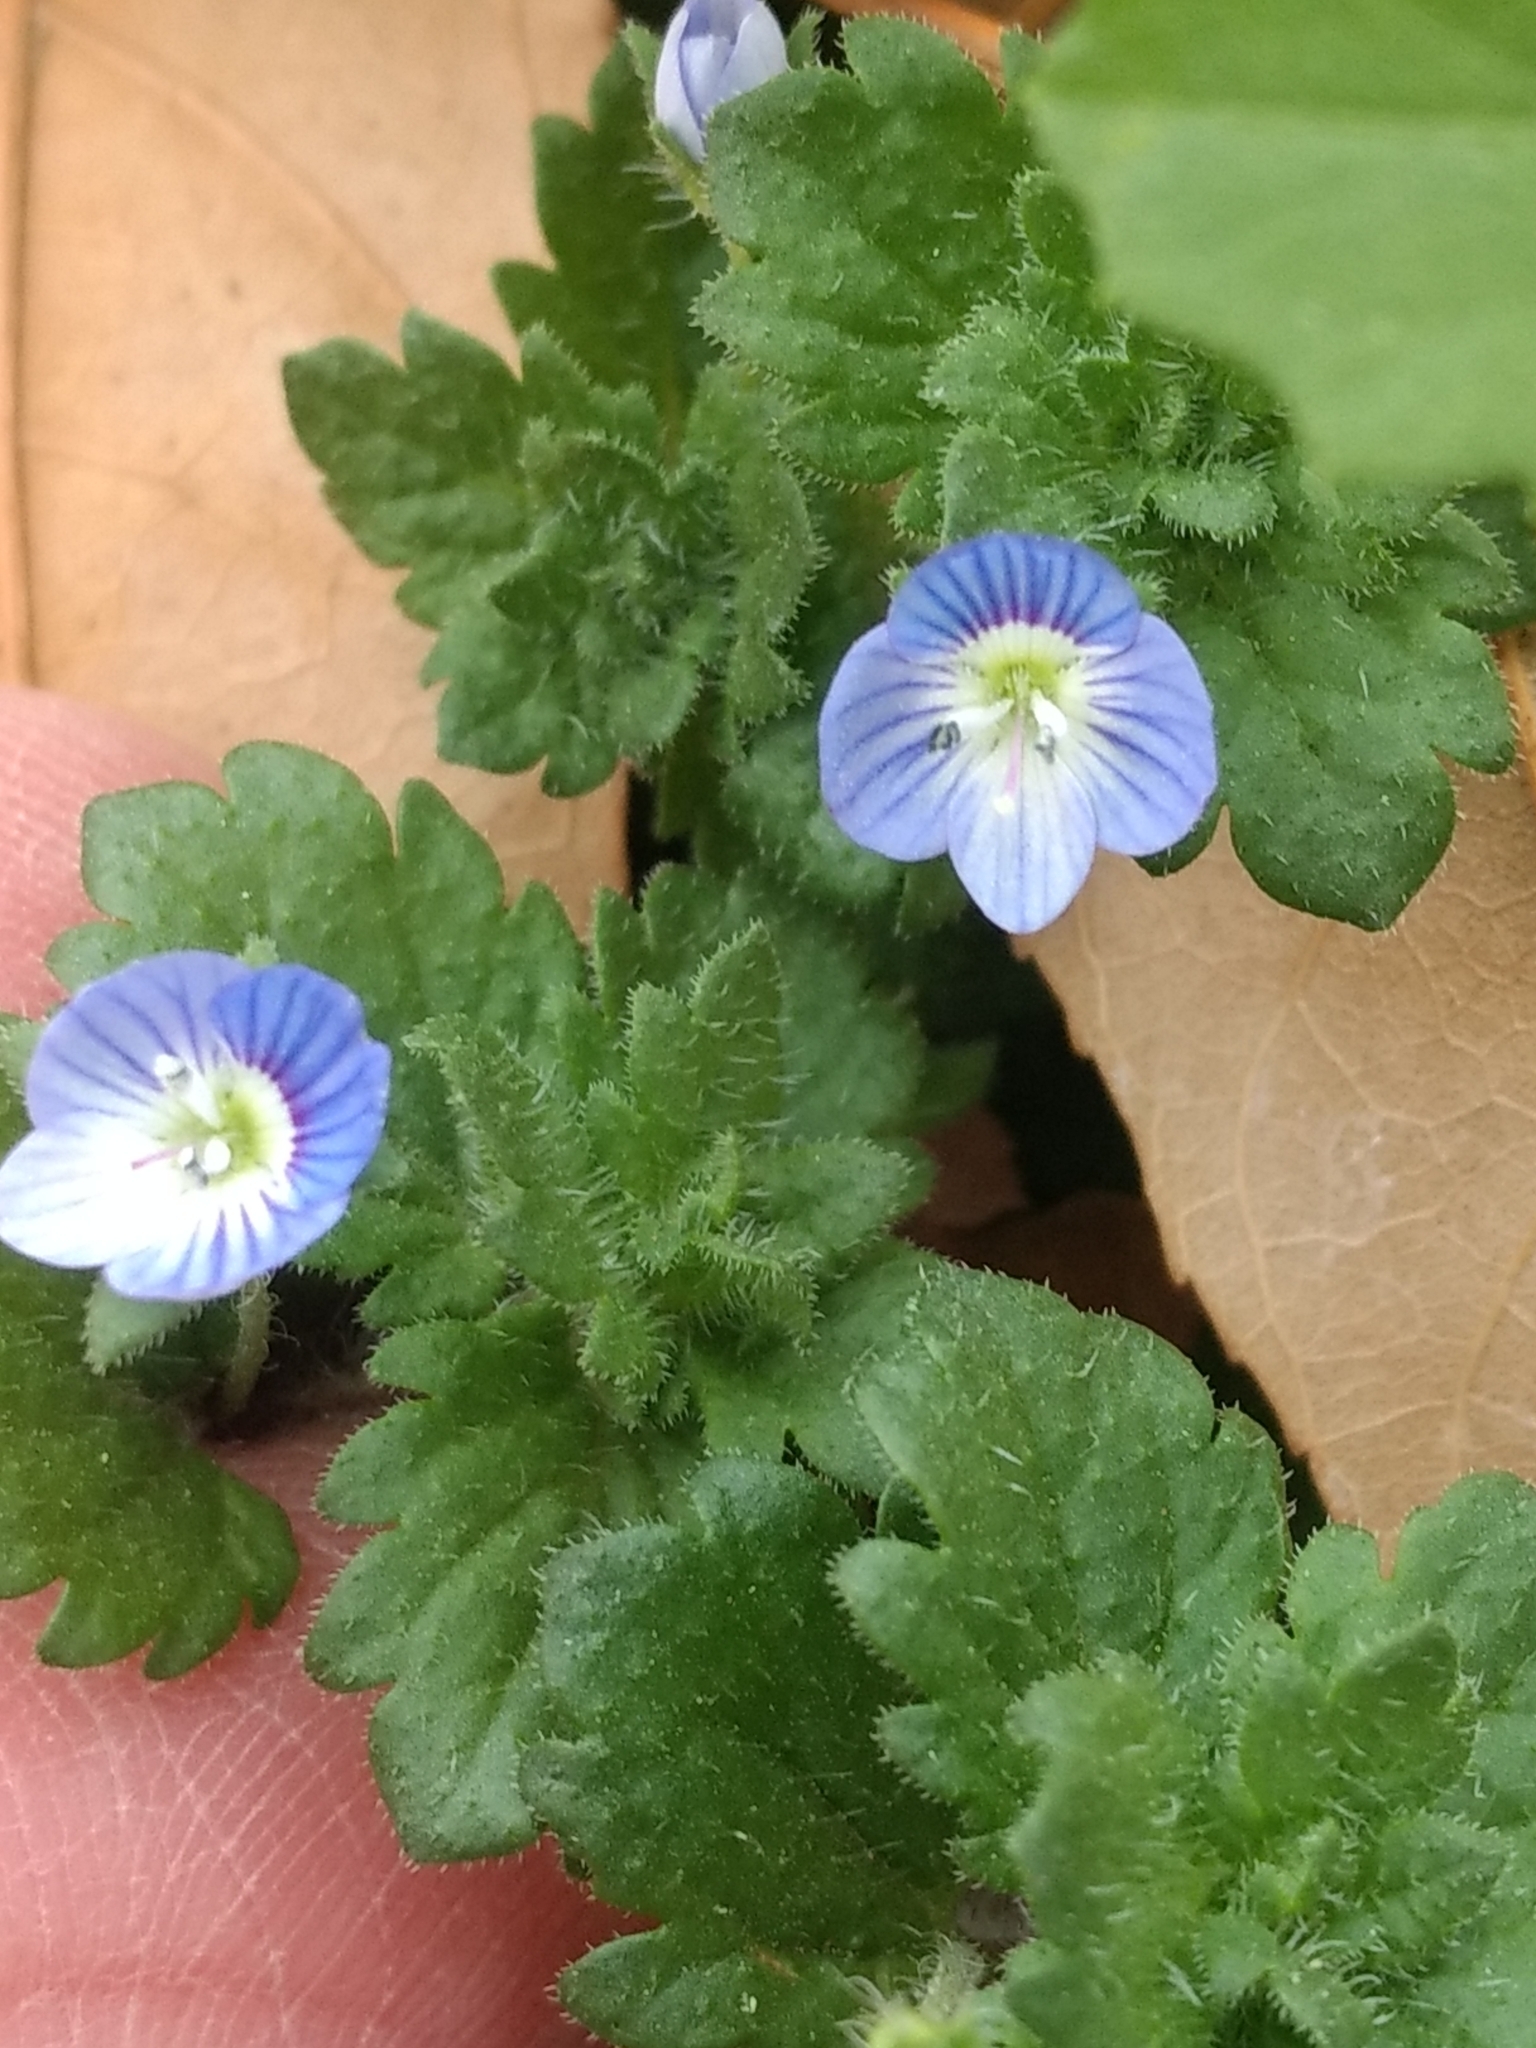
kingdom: Plantae
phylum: Tracheophyta
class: Magnoliopsida
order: Lamiales
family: Plantaginaceae
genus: Veronica
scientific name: Veronica persica
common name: Common field-speedwell
